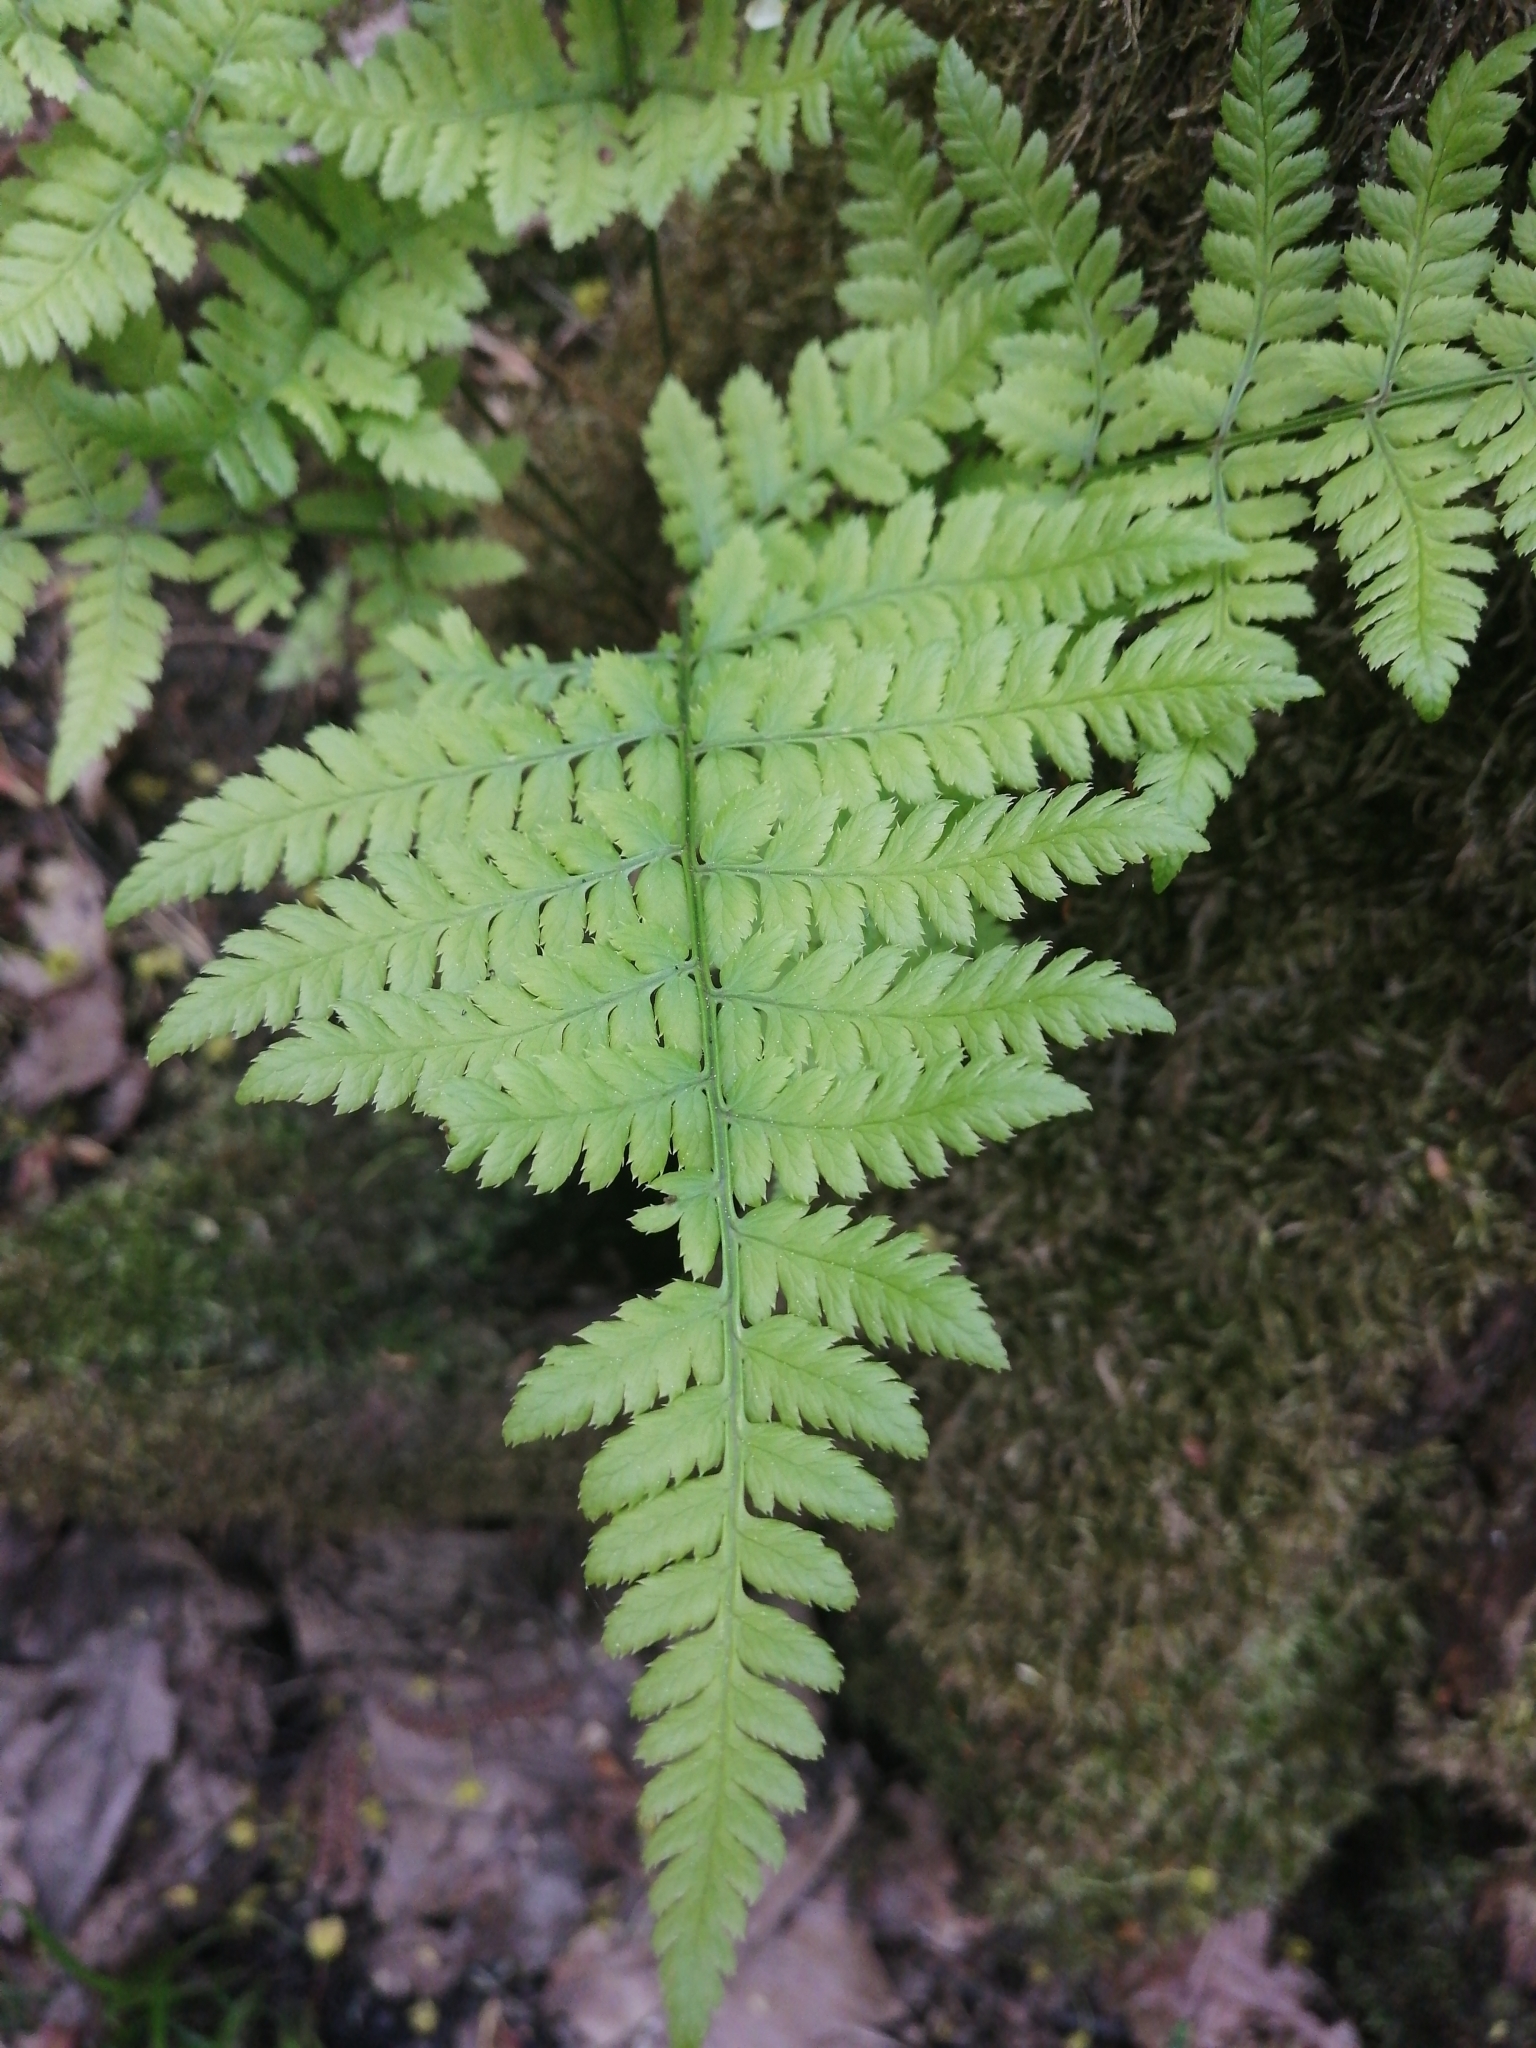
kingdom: Plantae
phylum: Tracheophyta
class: Polypodiopsida
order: Polypodiales
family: Dryopteridaceae
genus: Dryopteris
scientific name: Dryopteris carthusiana
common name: Narrow buckler-fern
